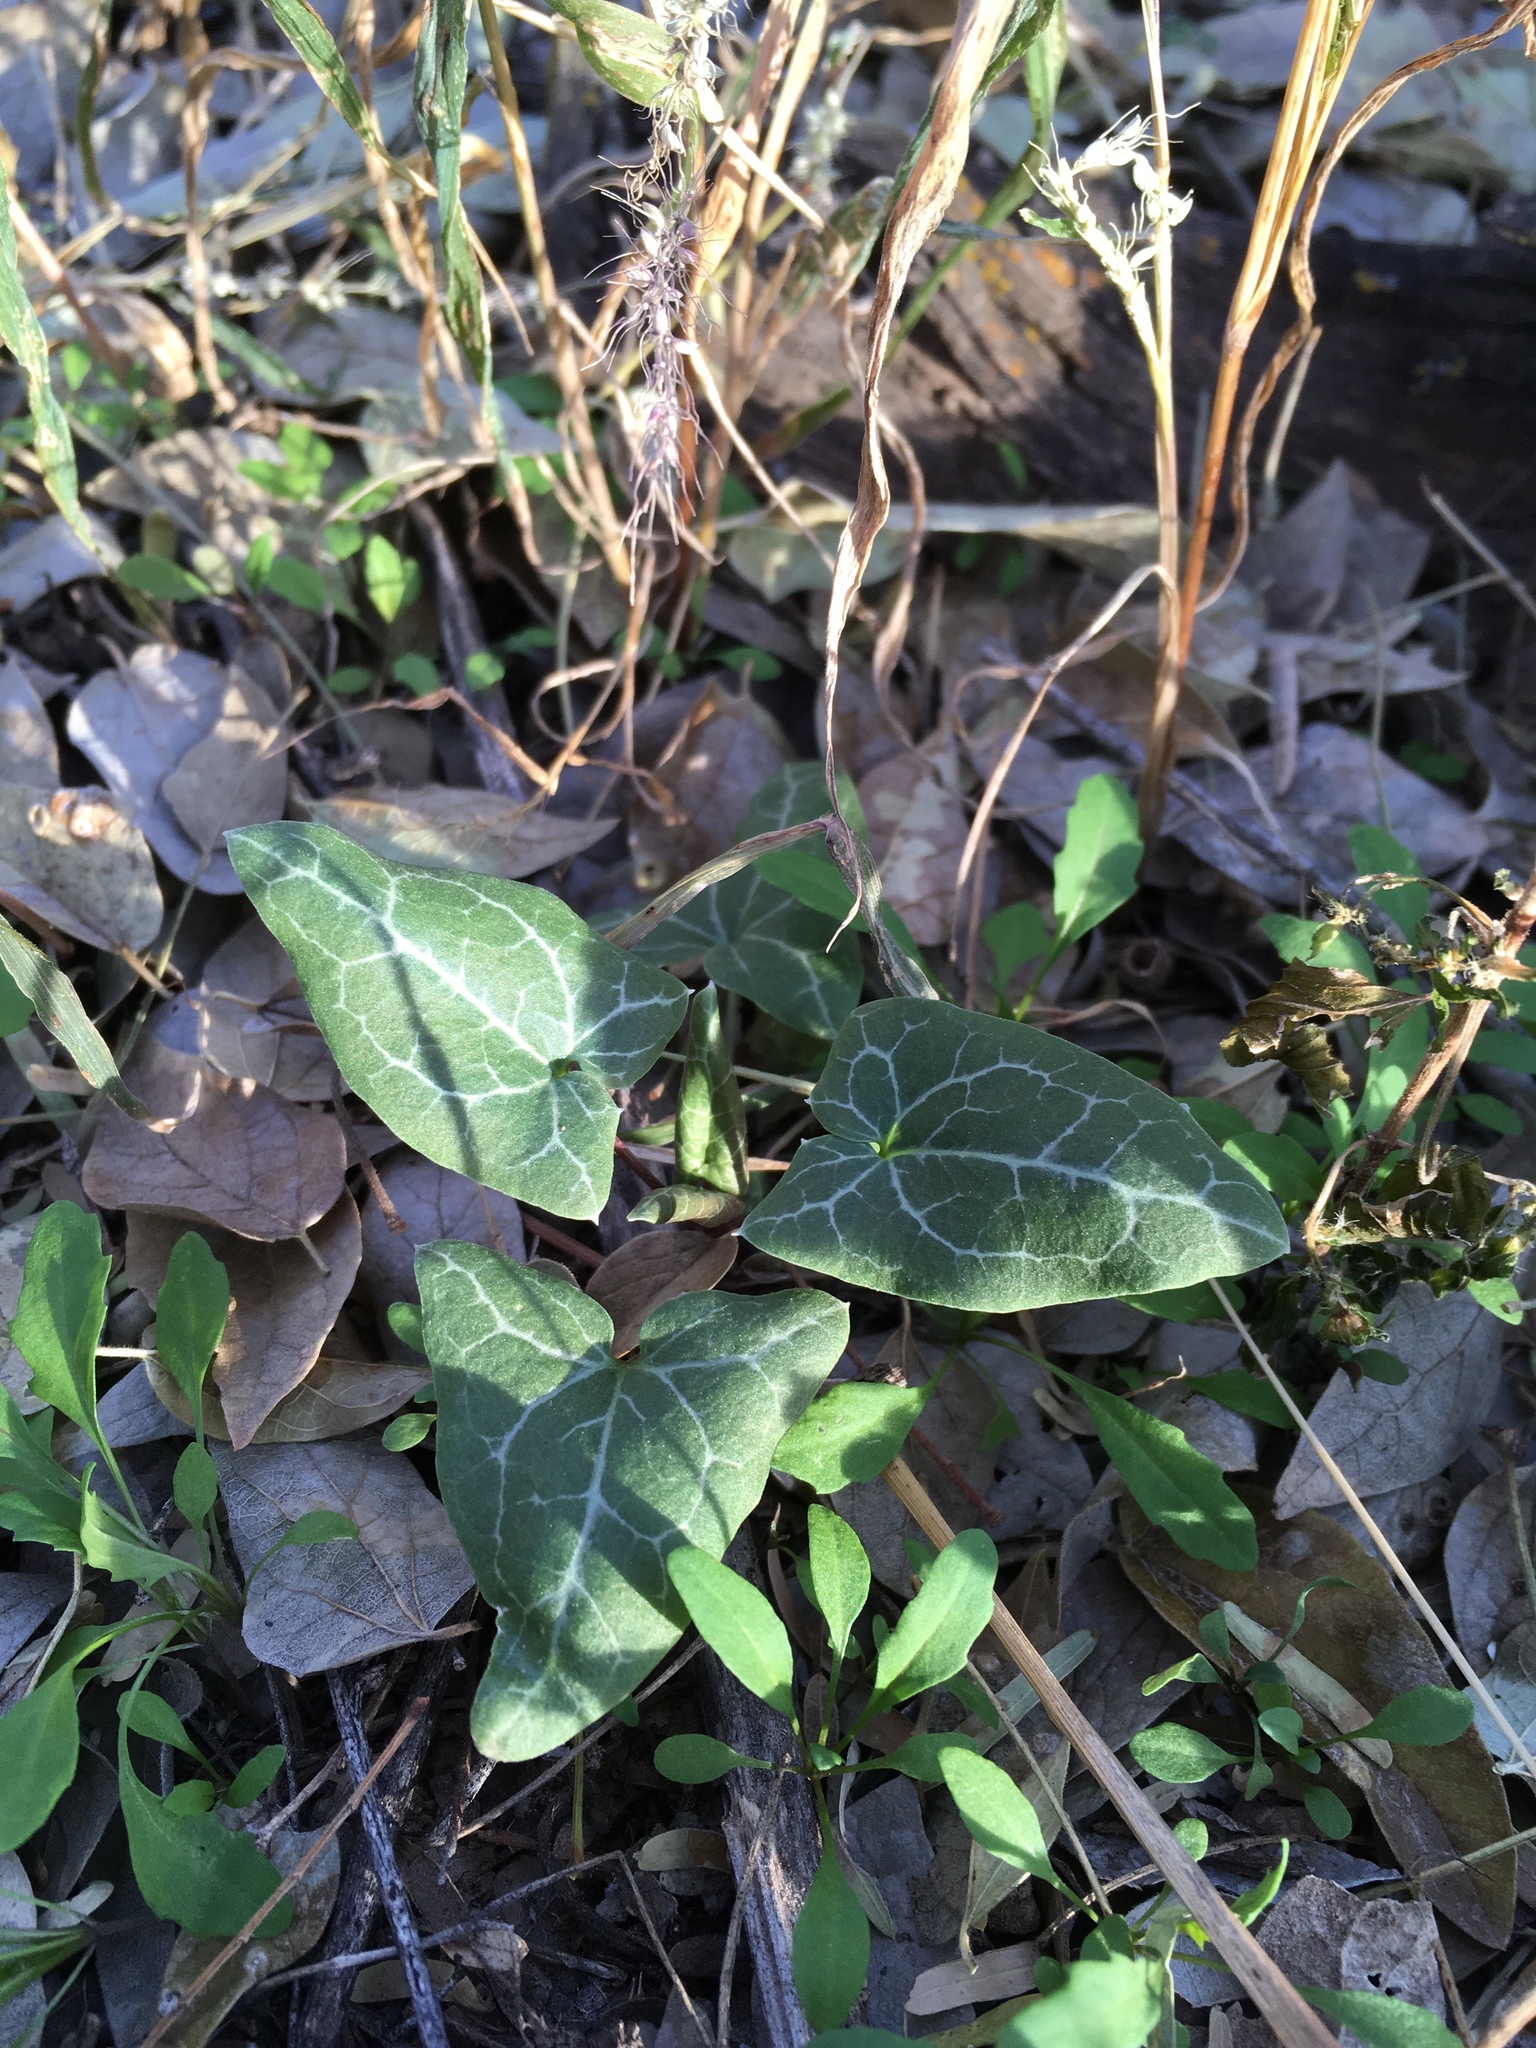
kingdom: Plantae
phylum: Tracheophyta
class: Magnoliopsida
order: Lamiales
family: Plantaginaceae
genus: Epixiphium
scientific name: Epixiphium wislizeni
